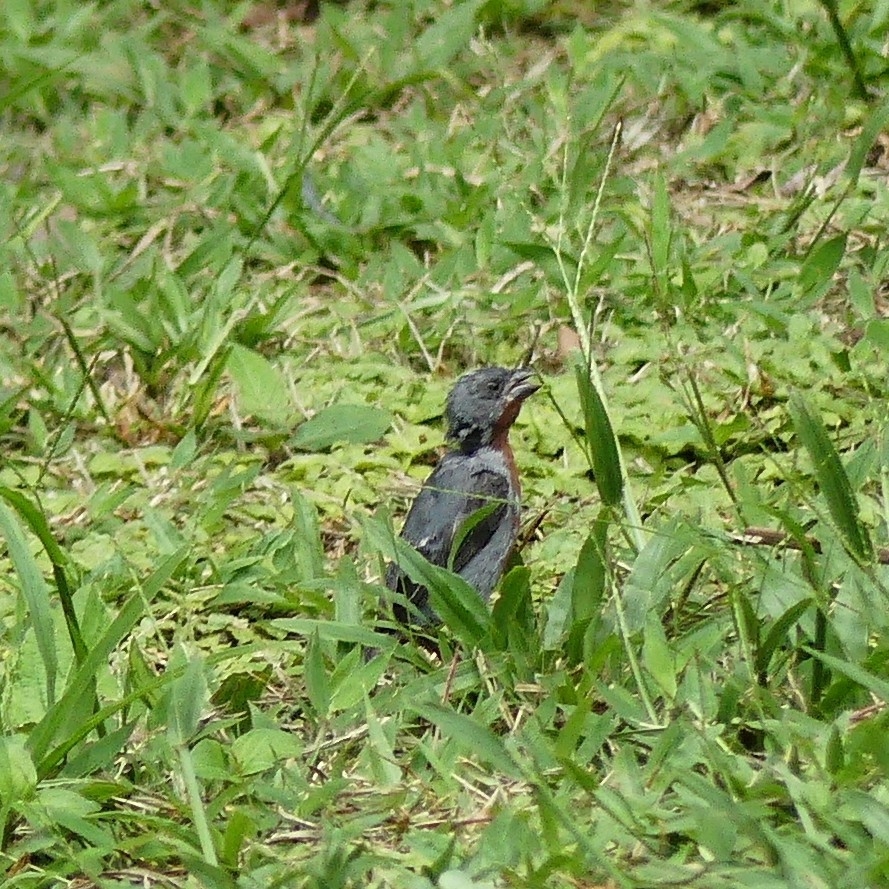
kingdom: Animalia
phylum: Chordata
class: Aves
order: Passeriformes
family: Thraupidae
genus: Sporophila
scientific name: Sporophila castaneiventris
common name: Chestnut-bellied seedeater
